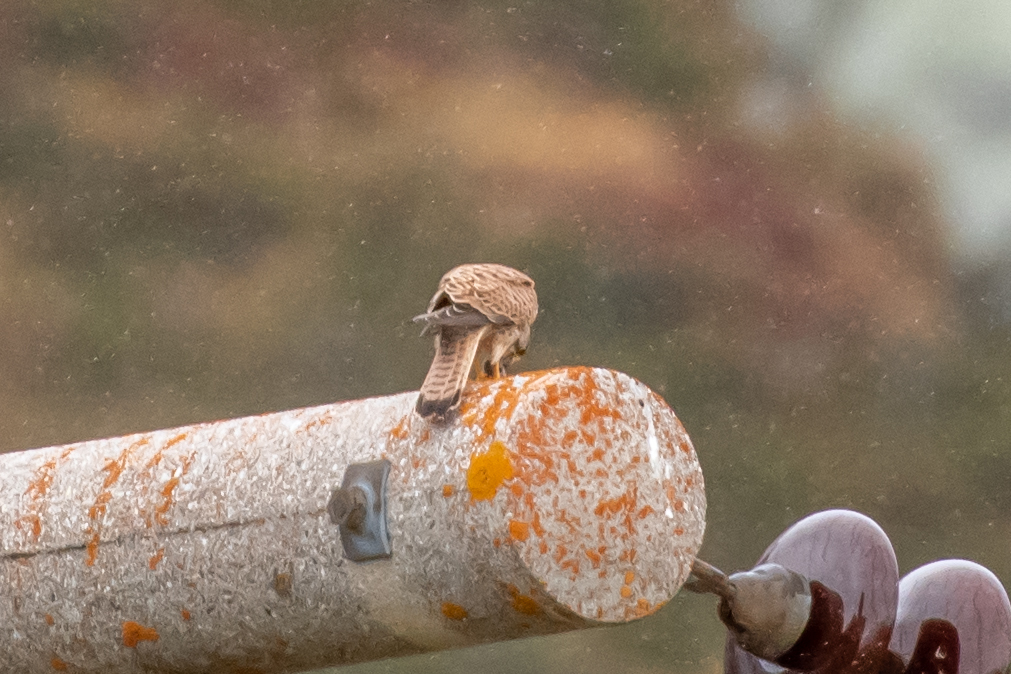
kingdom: Animalia
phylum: Chordata
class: Aves
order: Falconiformes
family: Falconidae
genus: Falco
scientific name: Falco tinnunculus
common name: Common kestrel
